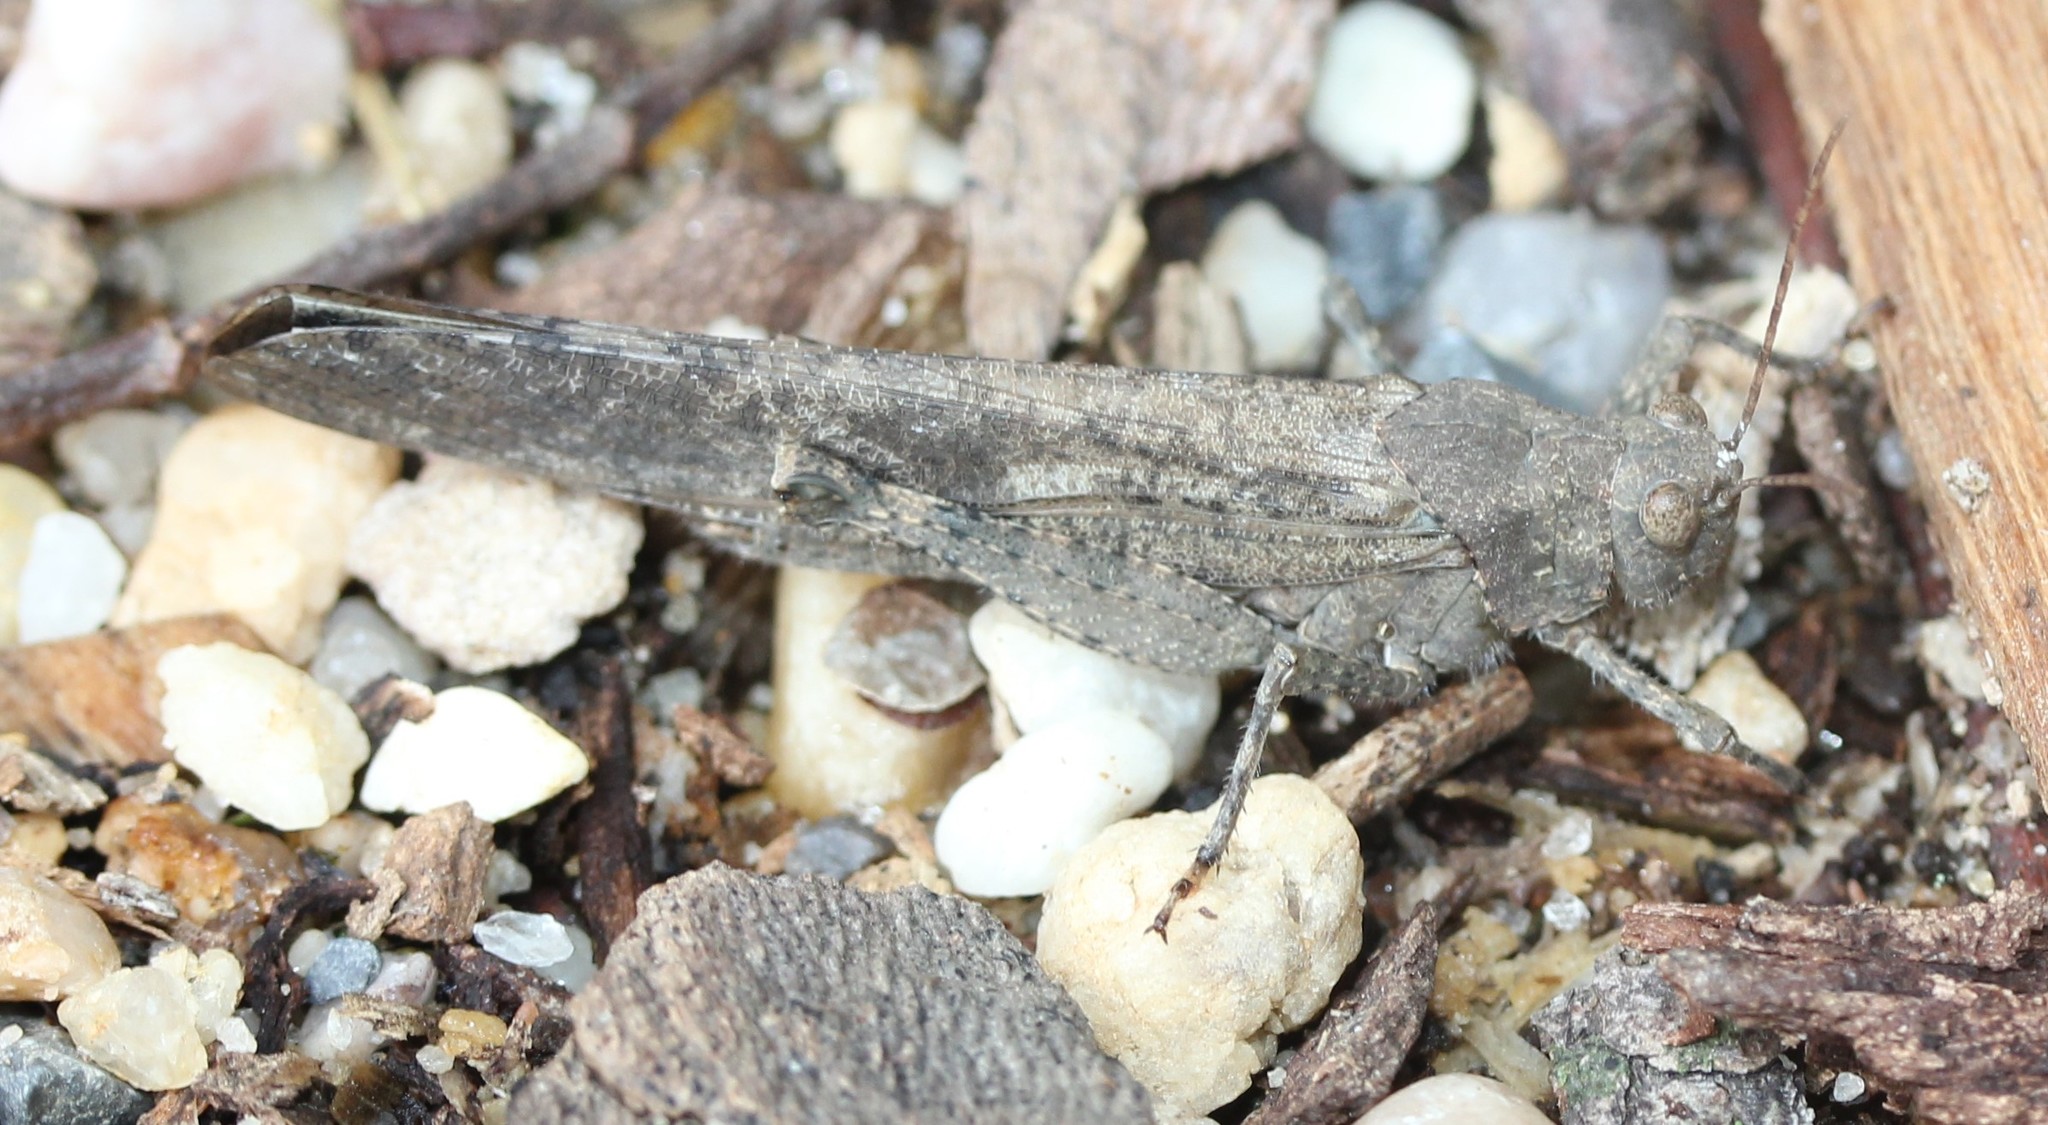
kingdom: Animalia
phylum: Arthropoda
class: Insecta
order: Orthoptera
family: Acrididae
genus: Dissosteira
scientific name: Dissosteira carolina
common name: Carolina grasshopper
